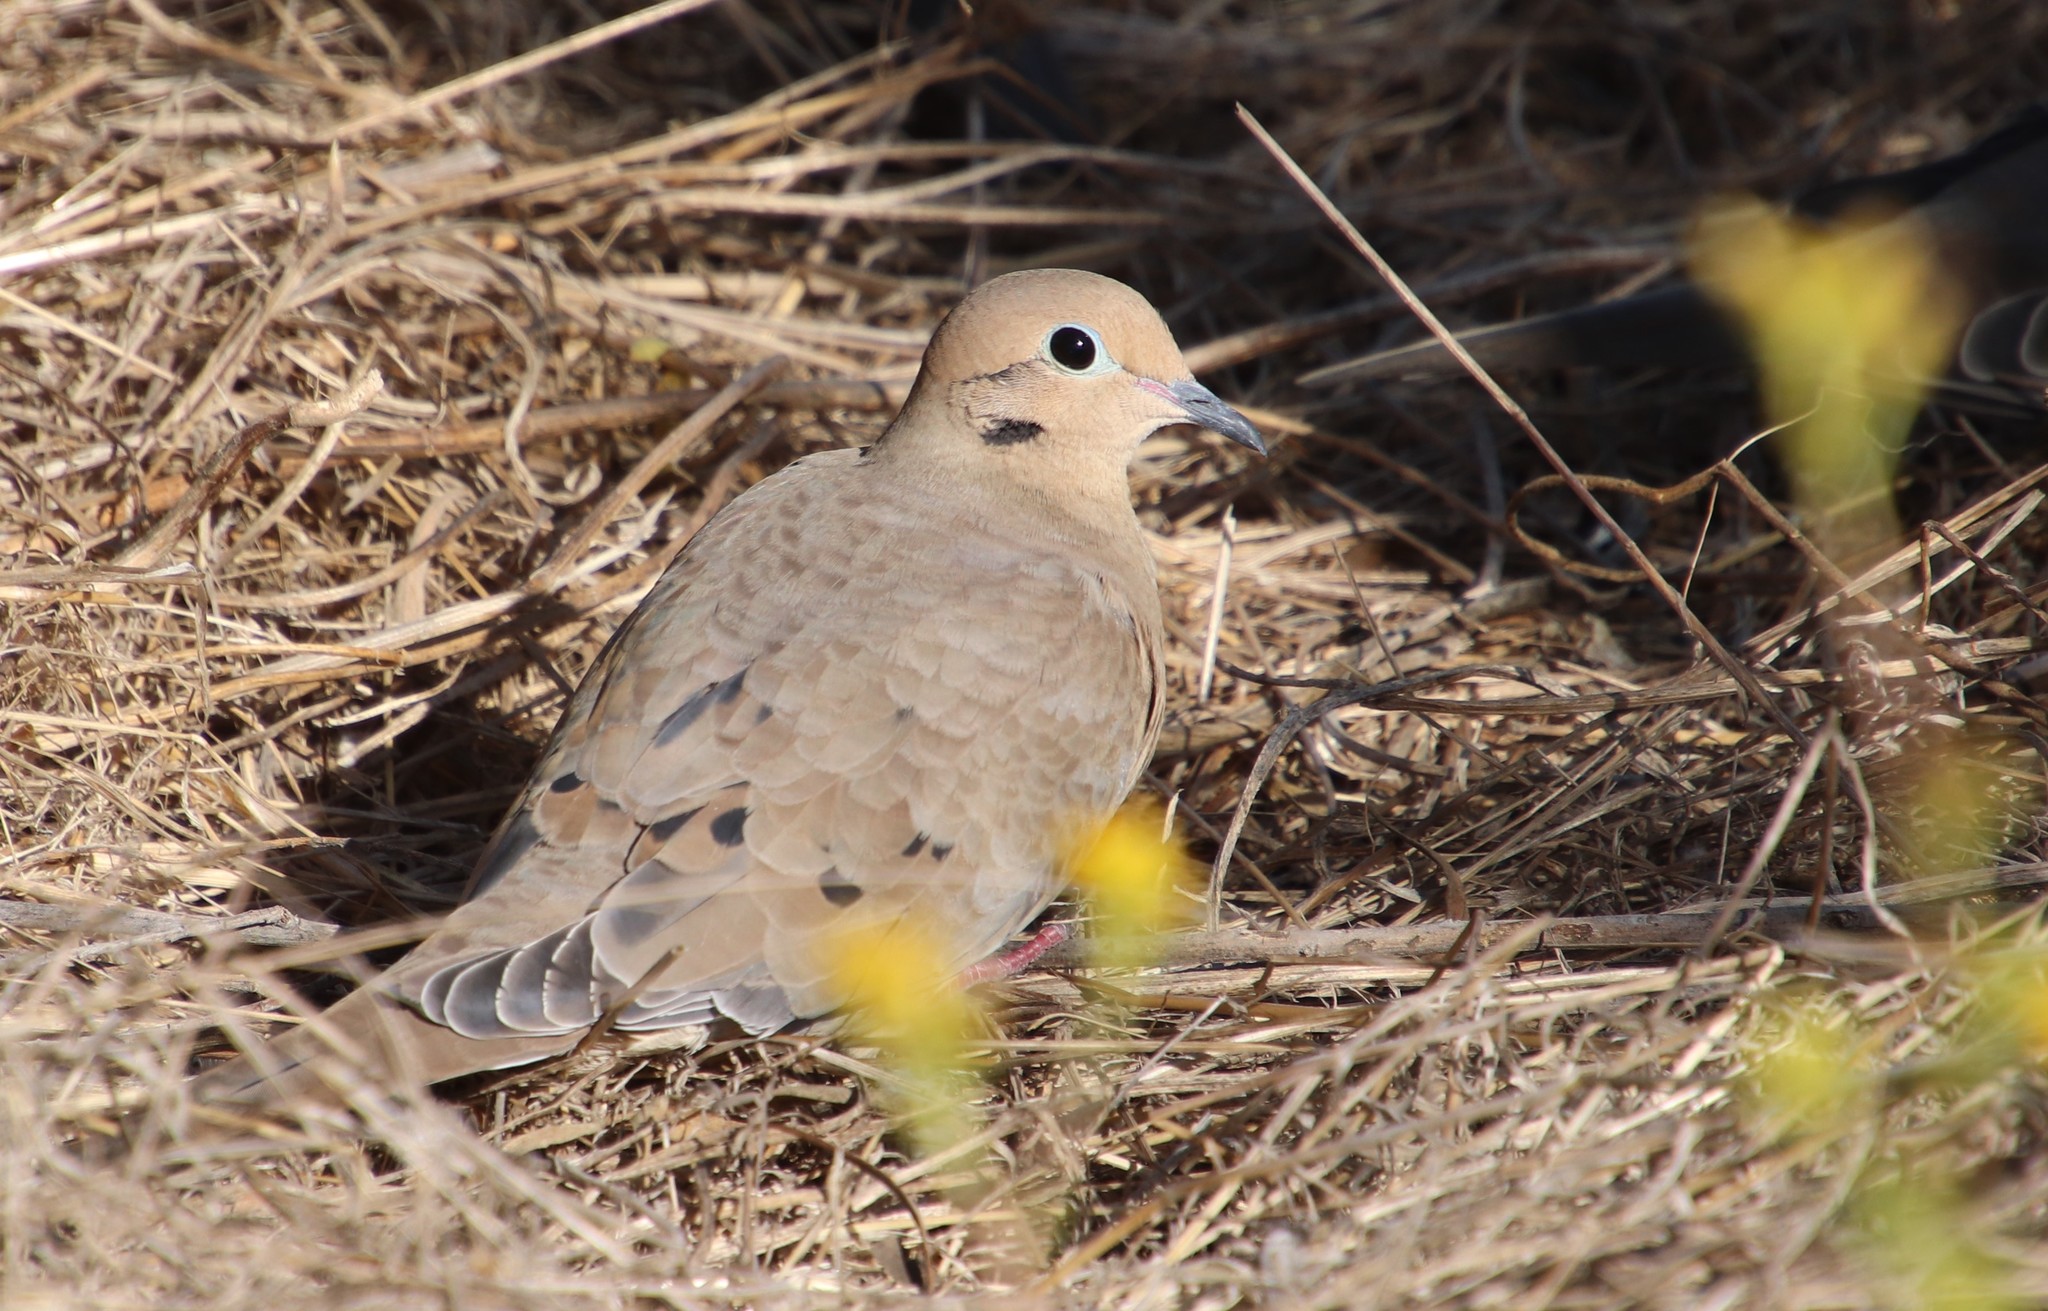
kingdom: Animalia
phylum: Chordata
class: Aves
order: Columbiformes
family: Columbidae
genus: Zenaida
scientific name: Zenaida macroura
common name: Mourning dove
